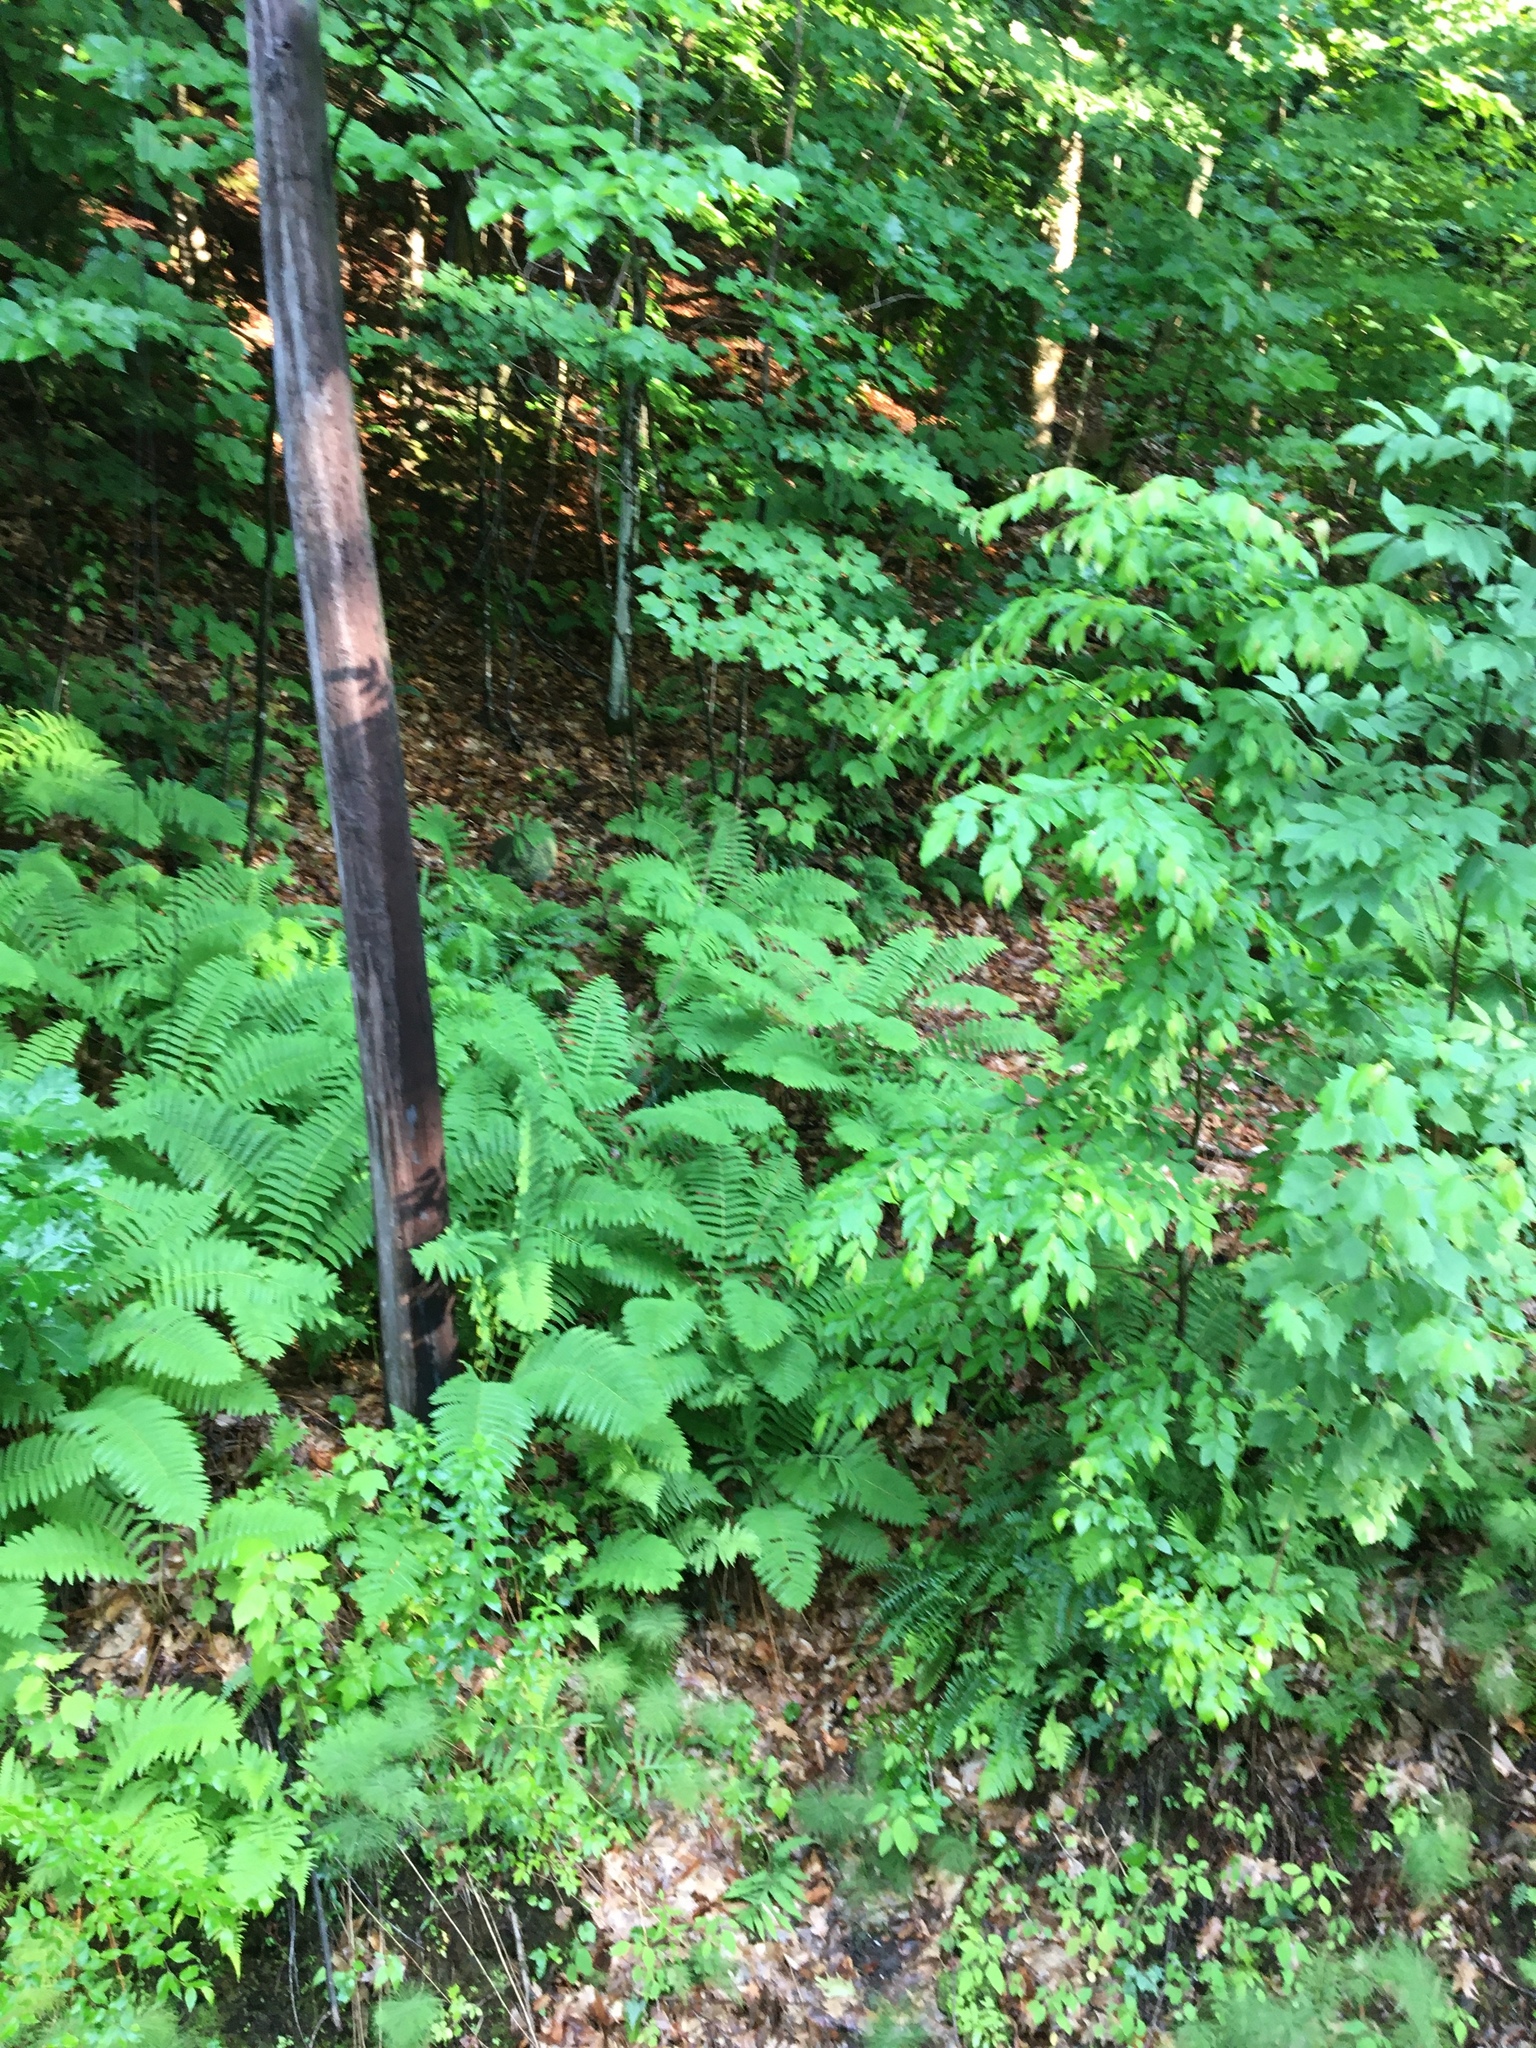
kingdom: Plantae
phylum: Tracheophyta
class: Polypodiopsida
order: Osmundales
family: Osmundaceae
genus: Claytosmunda
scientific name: Claytosmunda claytoniana
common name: Clayton's fern
